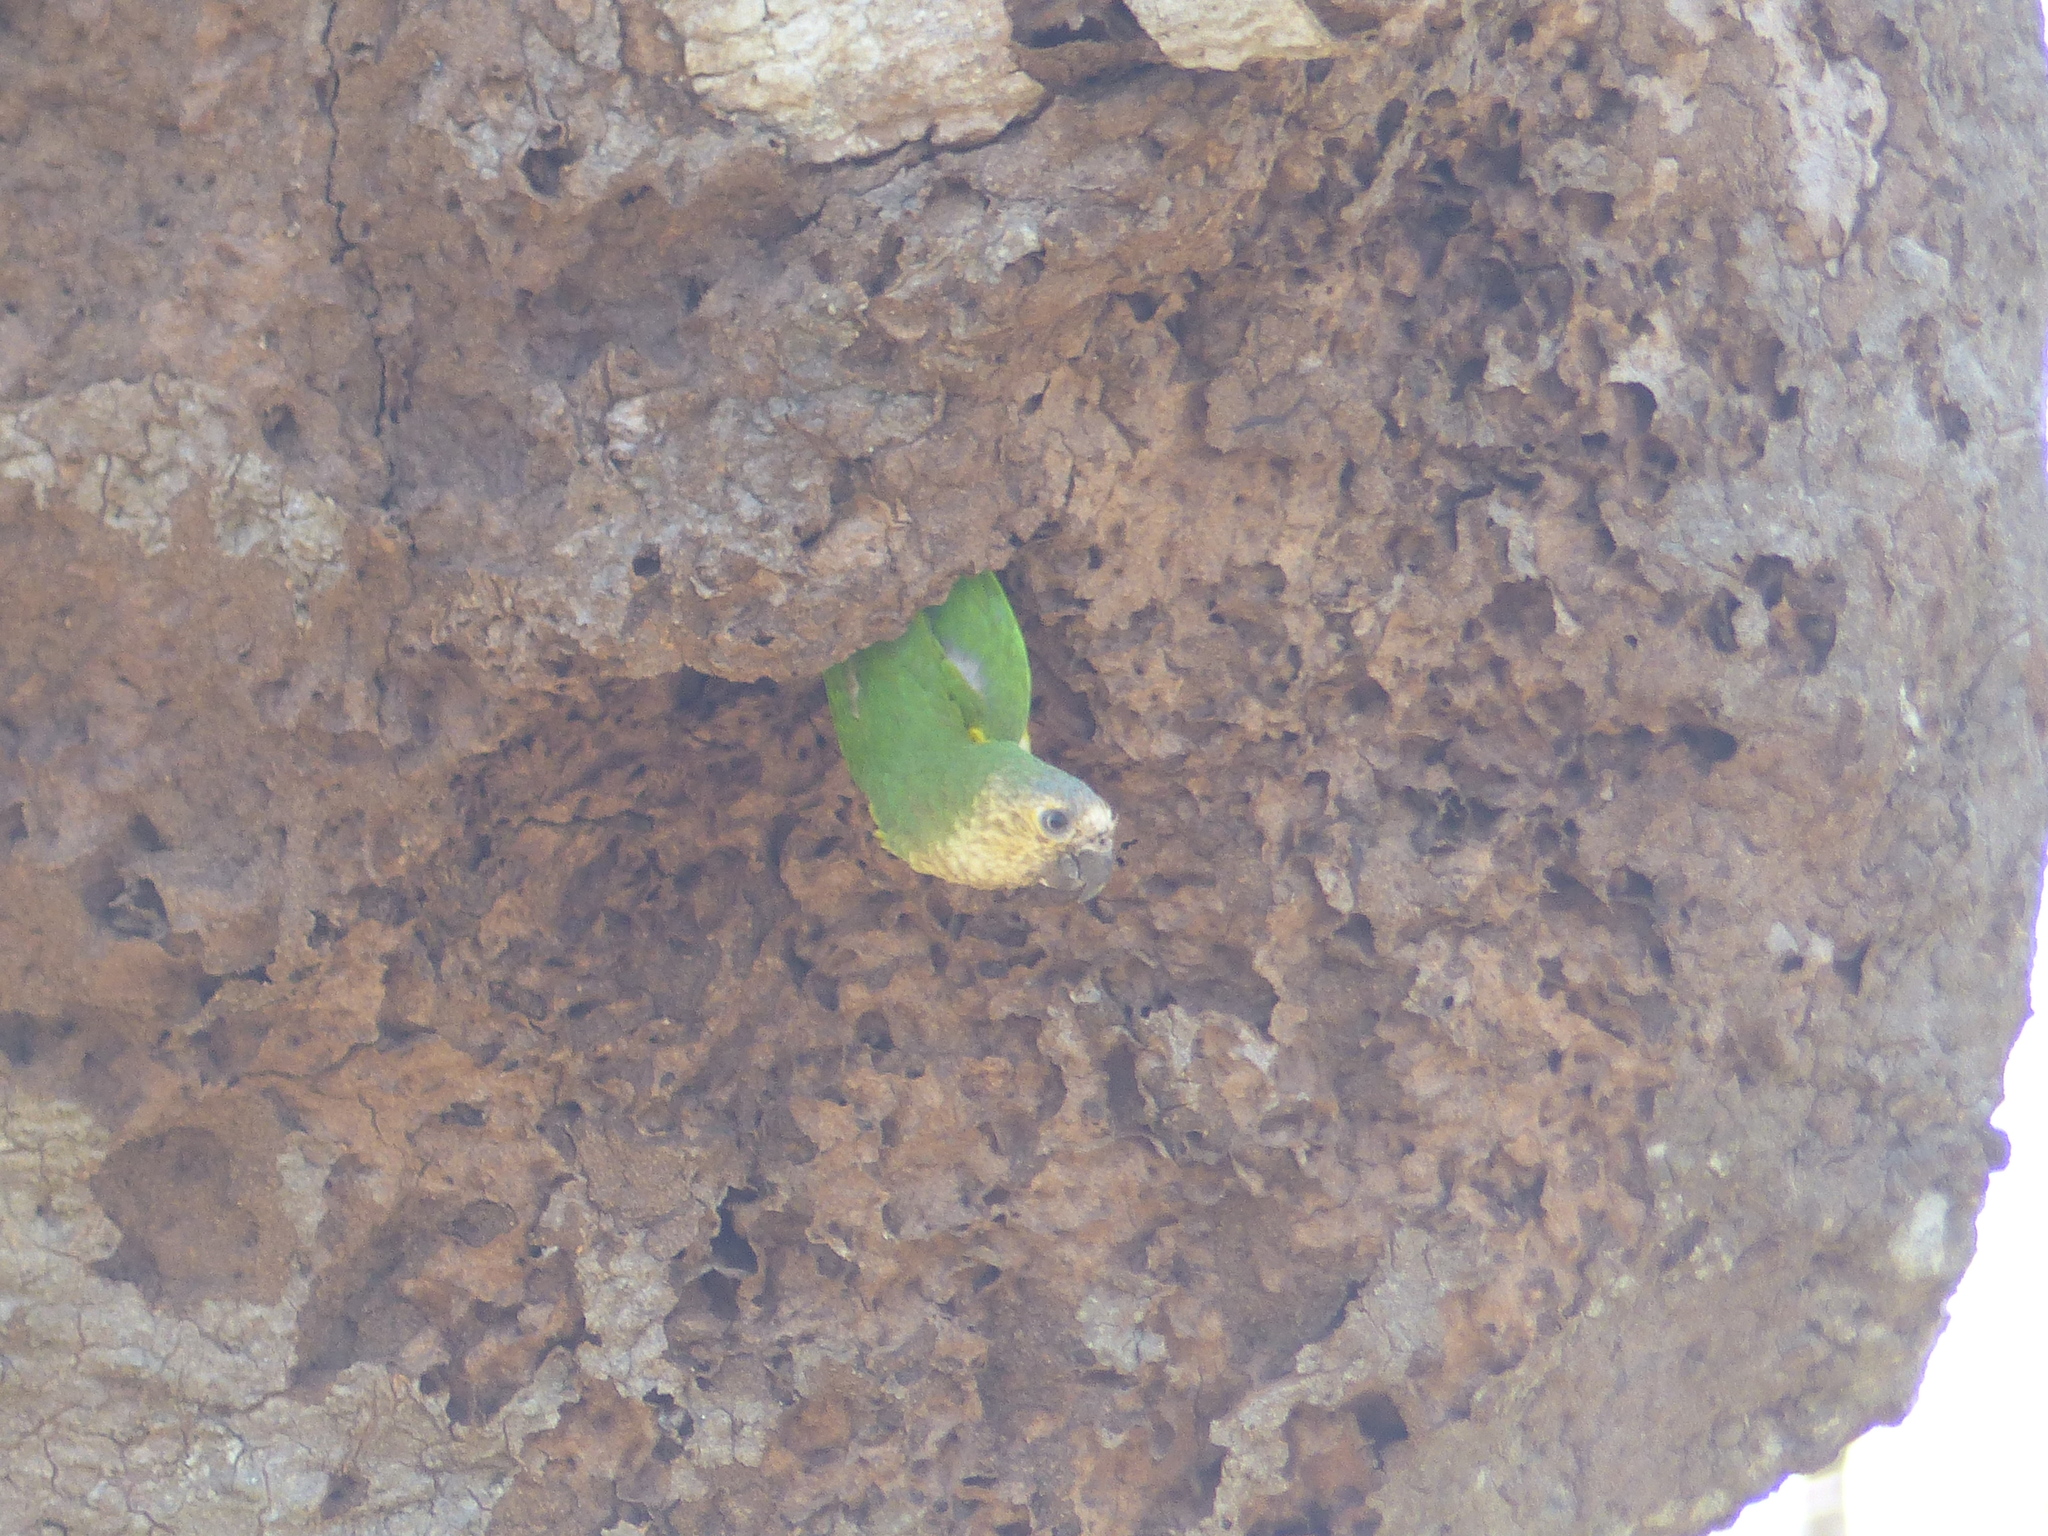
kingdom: Animalia
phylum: Chordata
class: Aves
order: Psittaciformes
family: Psittacidae
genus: Aratinga
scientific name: Aratinga pertinax
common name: Brown-throated parakeet
